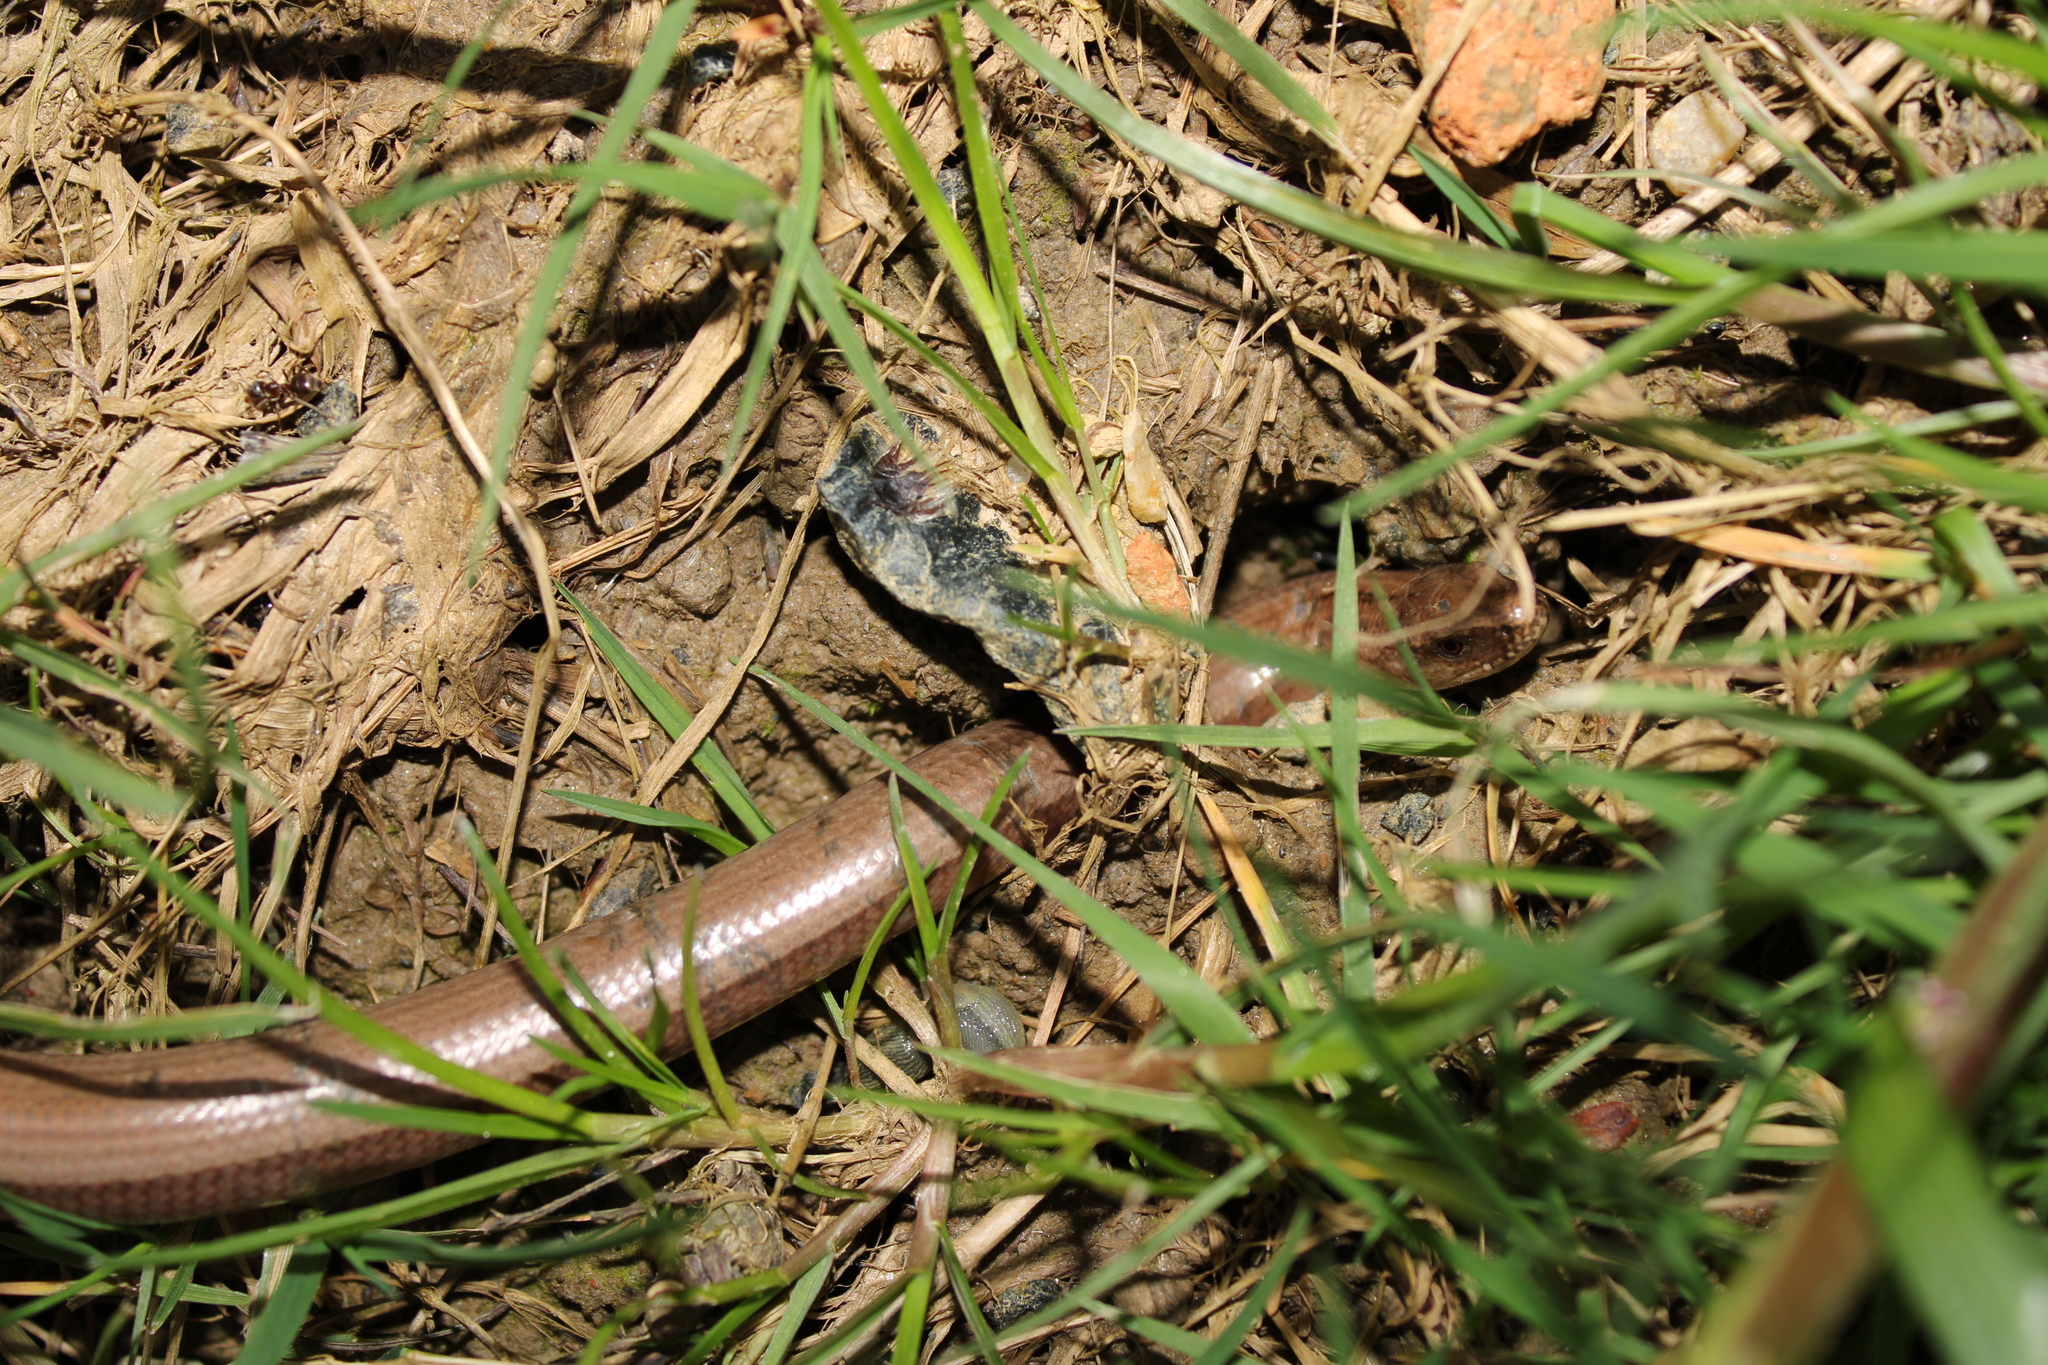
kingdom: Animalia
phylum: Chordata
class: Squamata
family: Anguidae
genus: Anguis
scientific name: Anguis fragilis
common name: Slow worm
